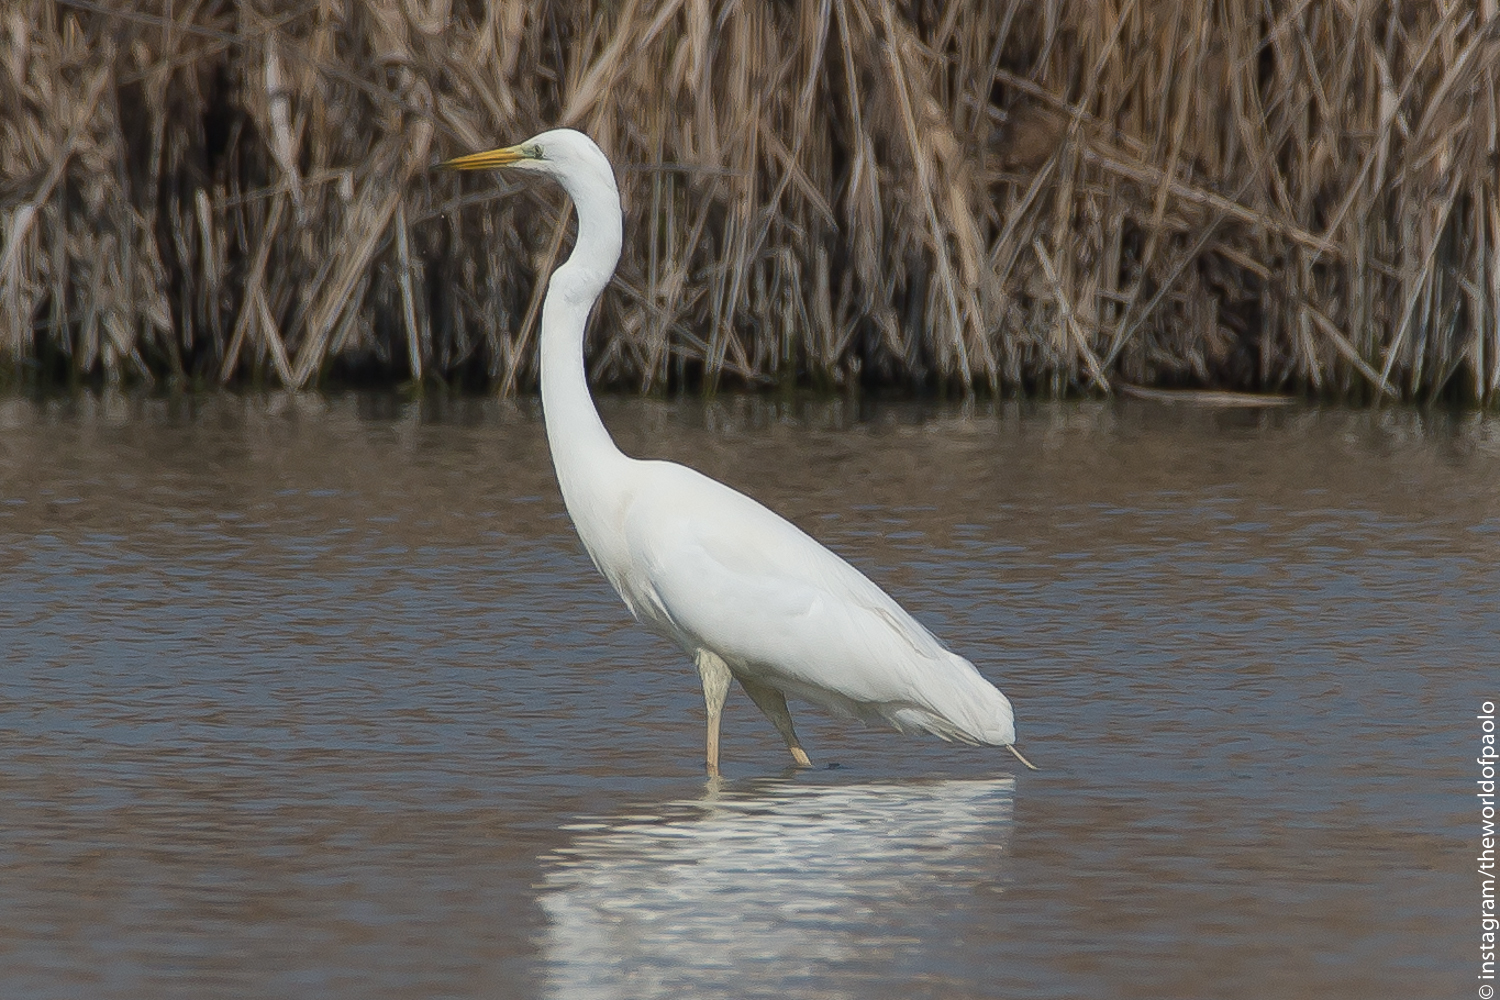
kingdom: Animalia
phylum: Chordata
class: Aves
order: Pelecaniformes
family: Ardeidae
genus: Ardea
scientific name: Ardea alba
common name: Great egret
